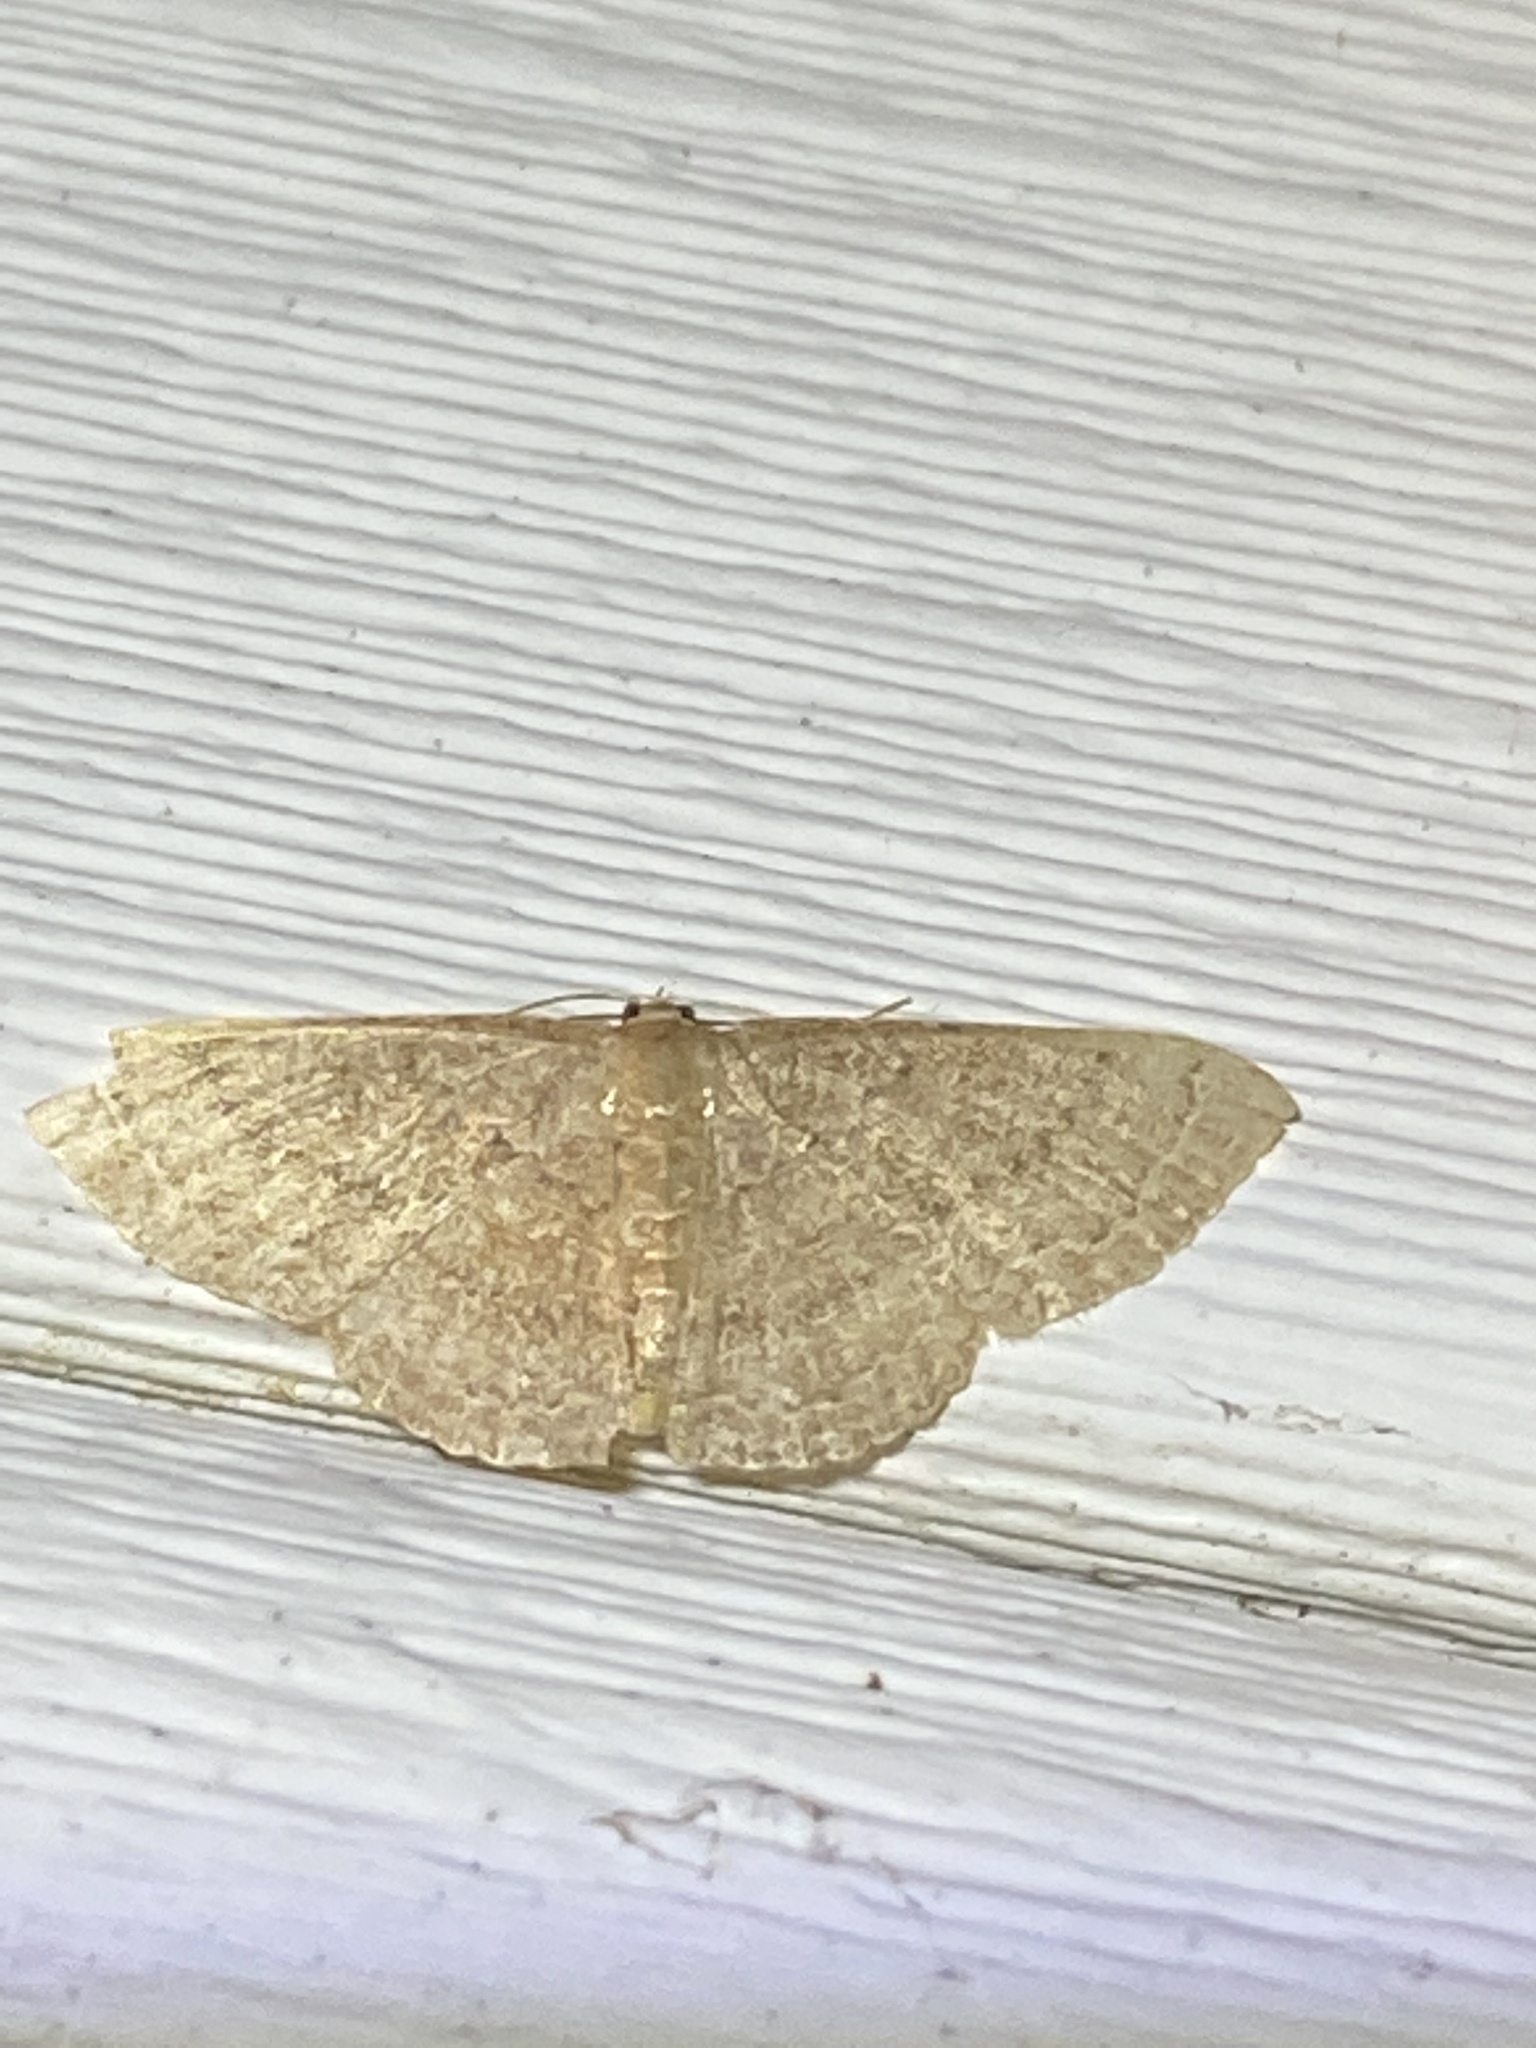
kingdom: Animalia
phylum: Arthropoda
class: Insecta
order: Lepidoptera
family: Geometridae
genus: Pleuroprucha
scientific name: Pleuroprucha insulsaria
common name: Common tan wave
